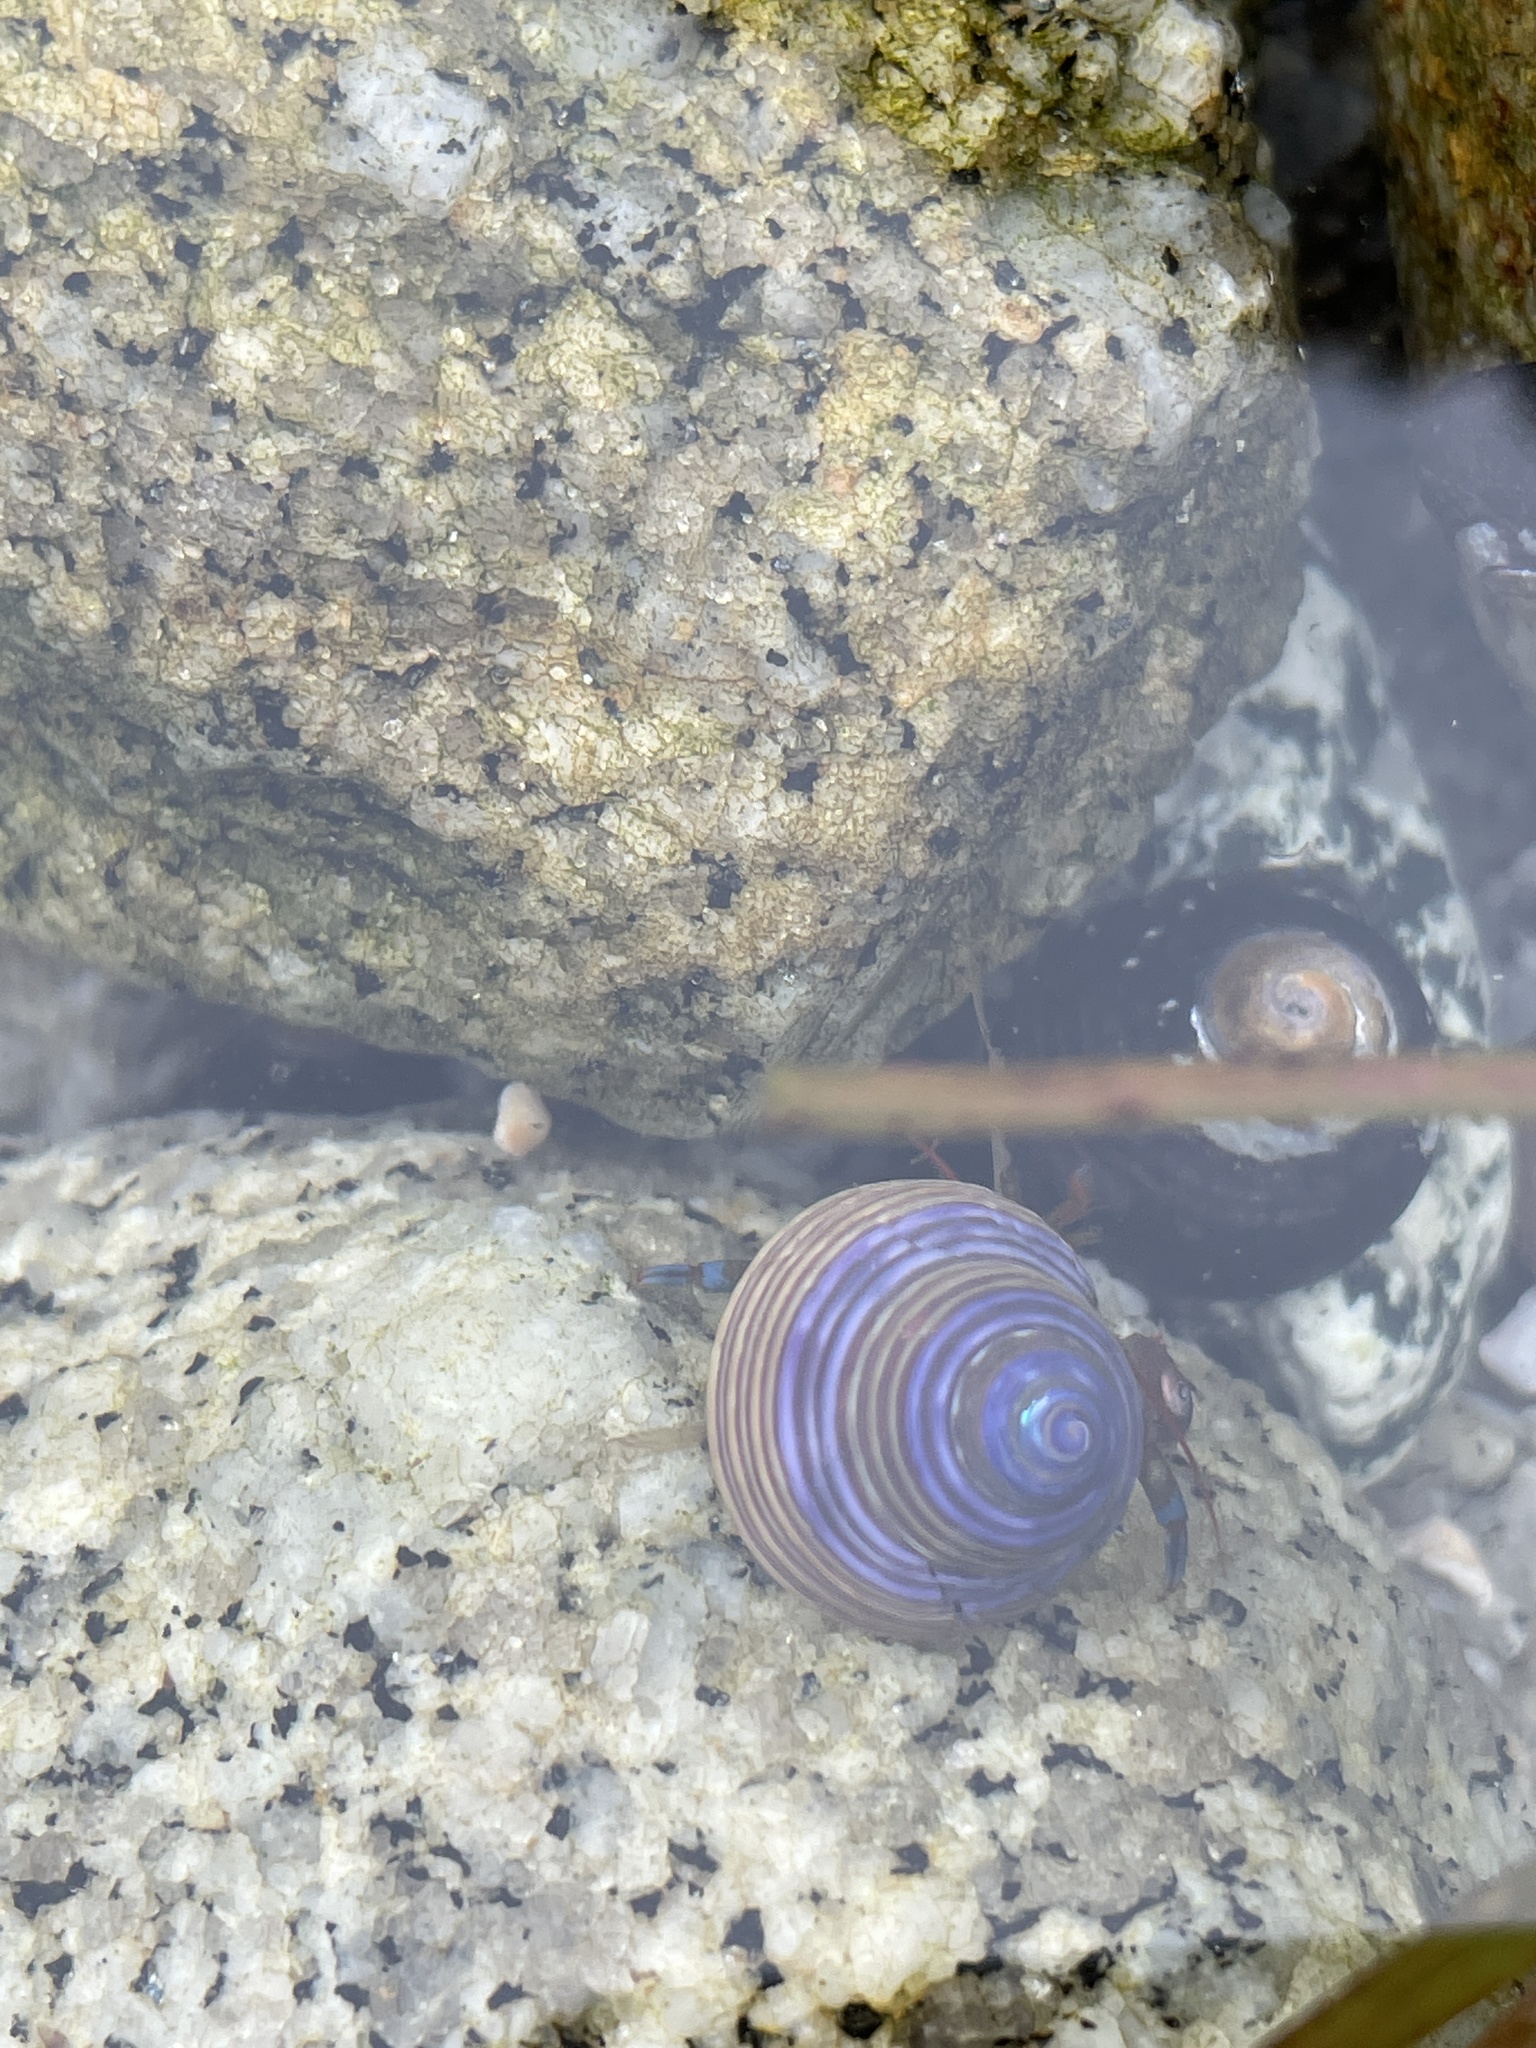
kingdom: Animalia
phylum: Arthropoda
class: Malacostraca
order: Decapoda
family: Paguridae
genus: Pagurus
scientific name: Pagurus samuelis
